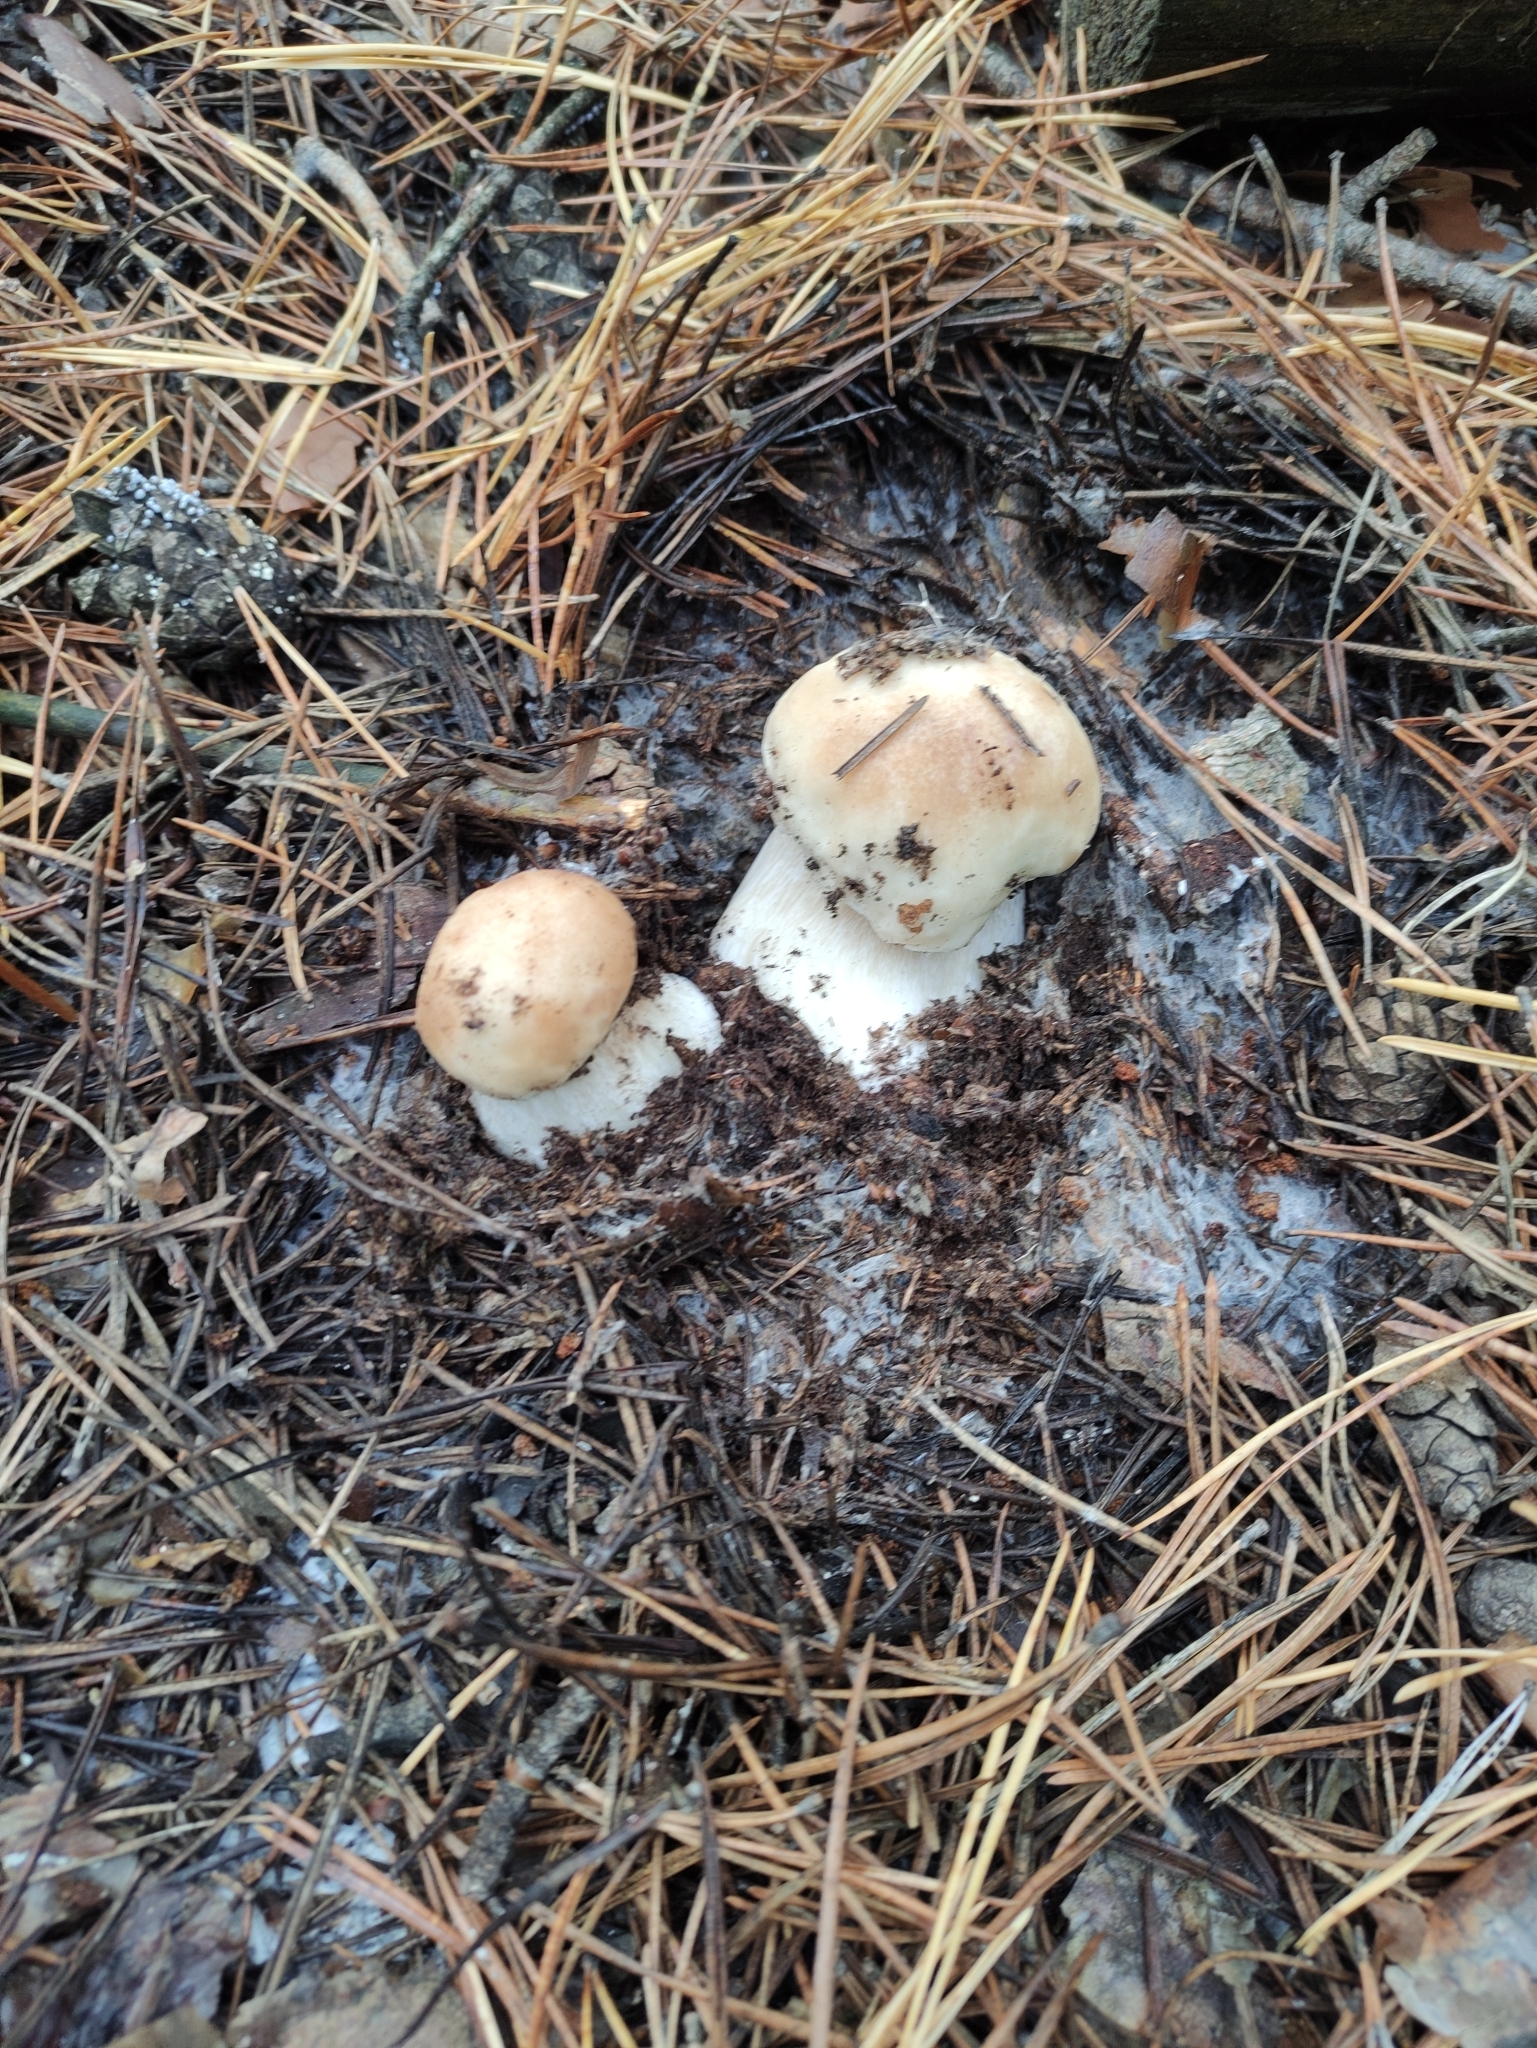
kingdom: Fungi
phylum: Basidiomycota
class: Agaricomycetes
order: Boletales
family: Boletaceae
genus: Boletus
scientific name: Boletus edulis
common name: Cep
